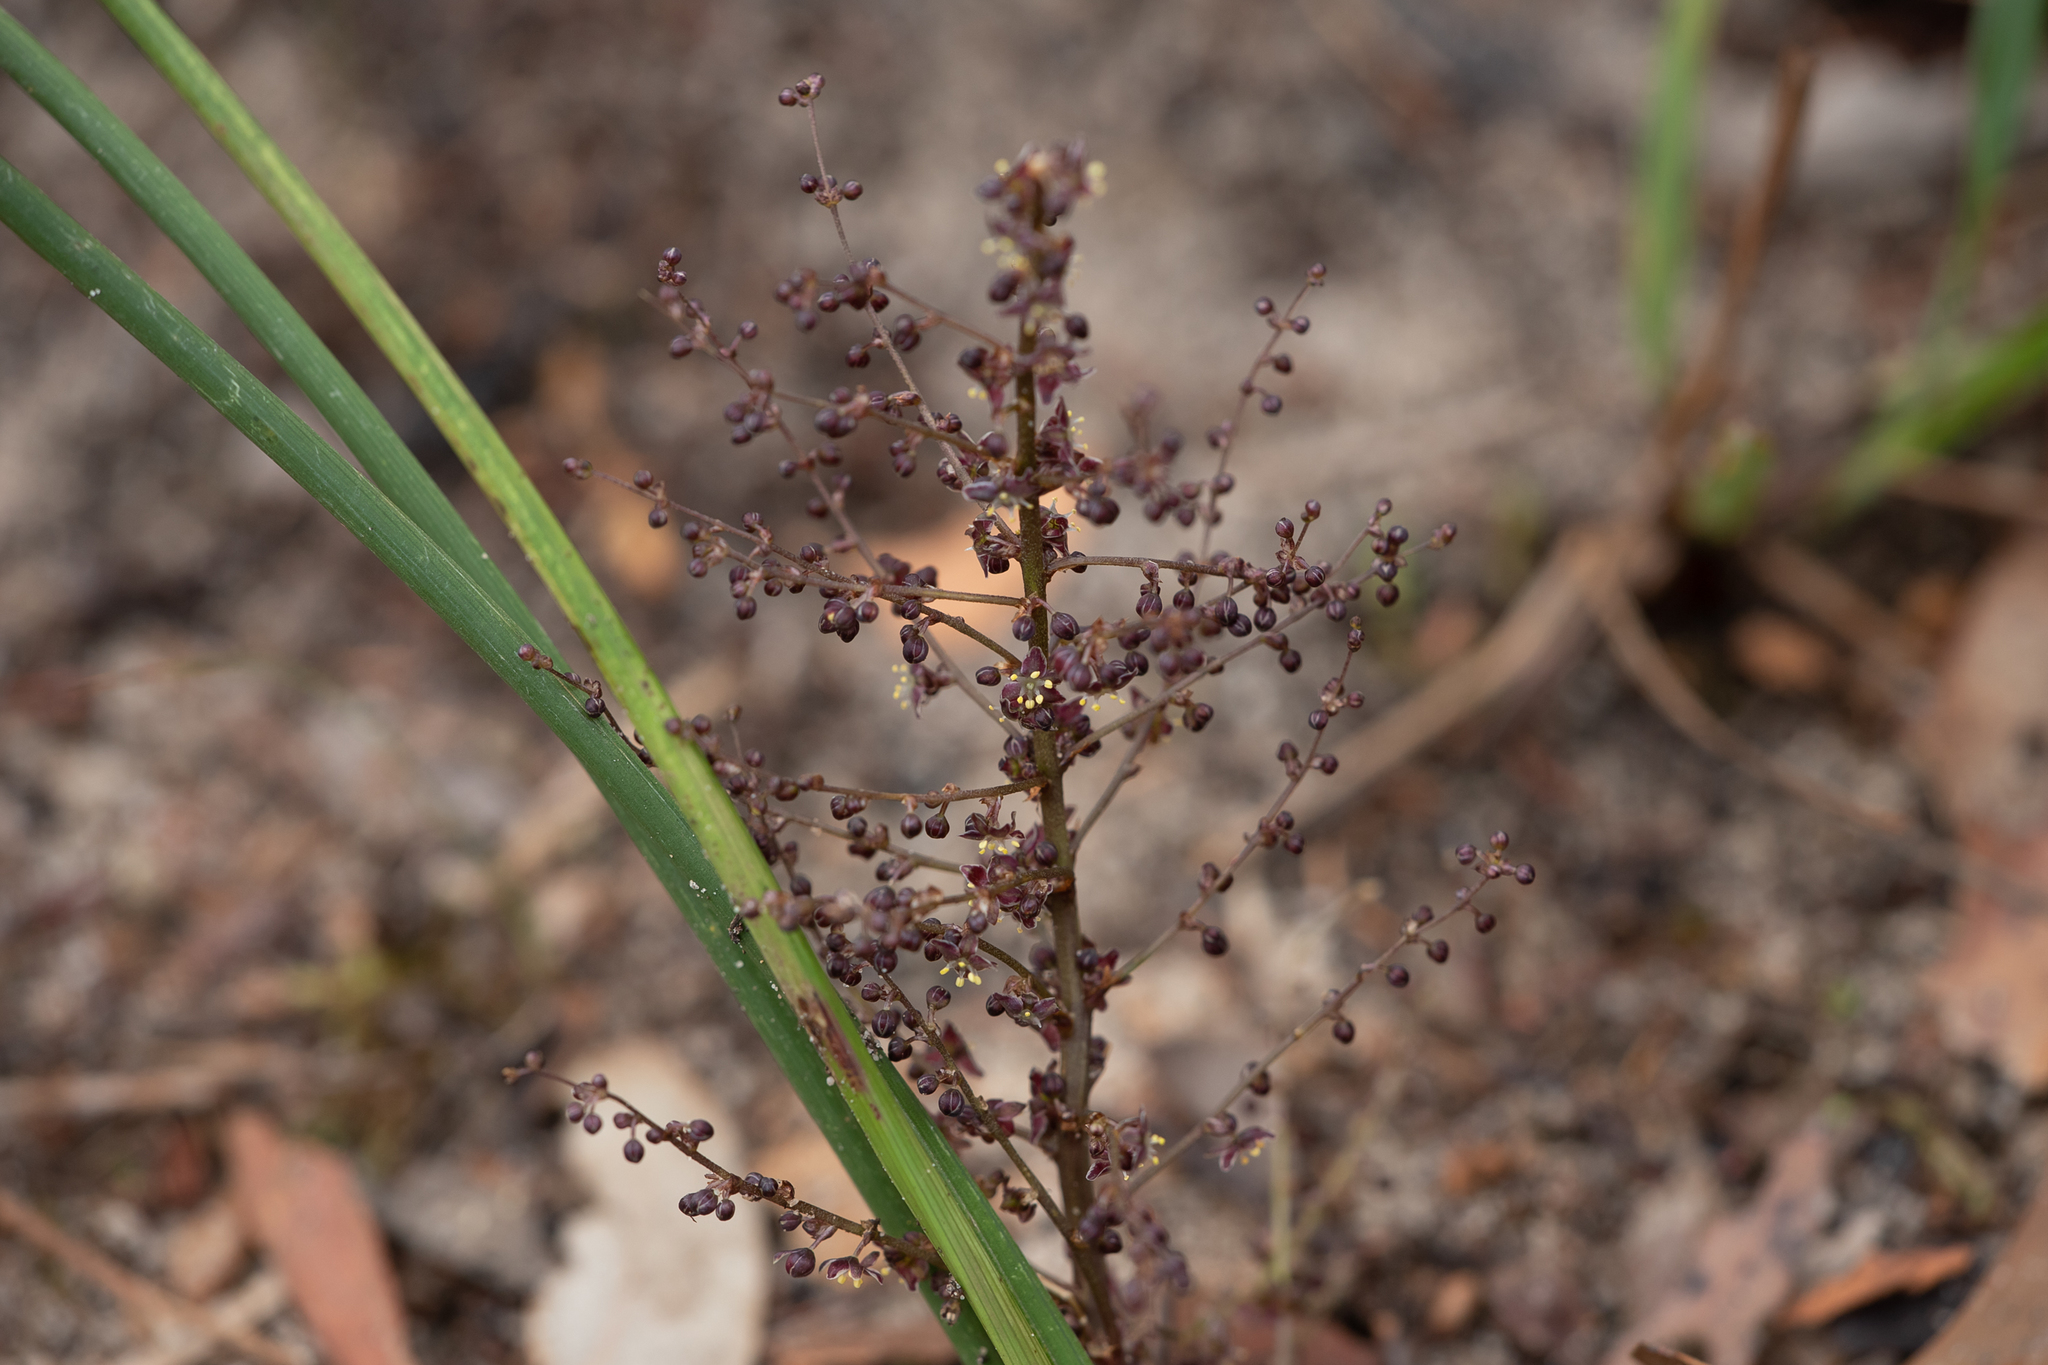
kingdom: Plantae
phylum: Tracheophyta
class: Liliopsida
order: Asparagales
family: Asparagaceae
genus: Lomandra
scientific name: Lomandra micrantha
